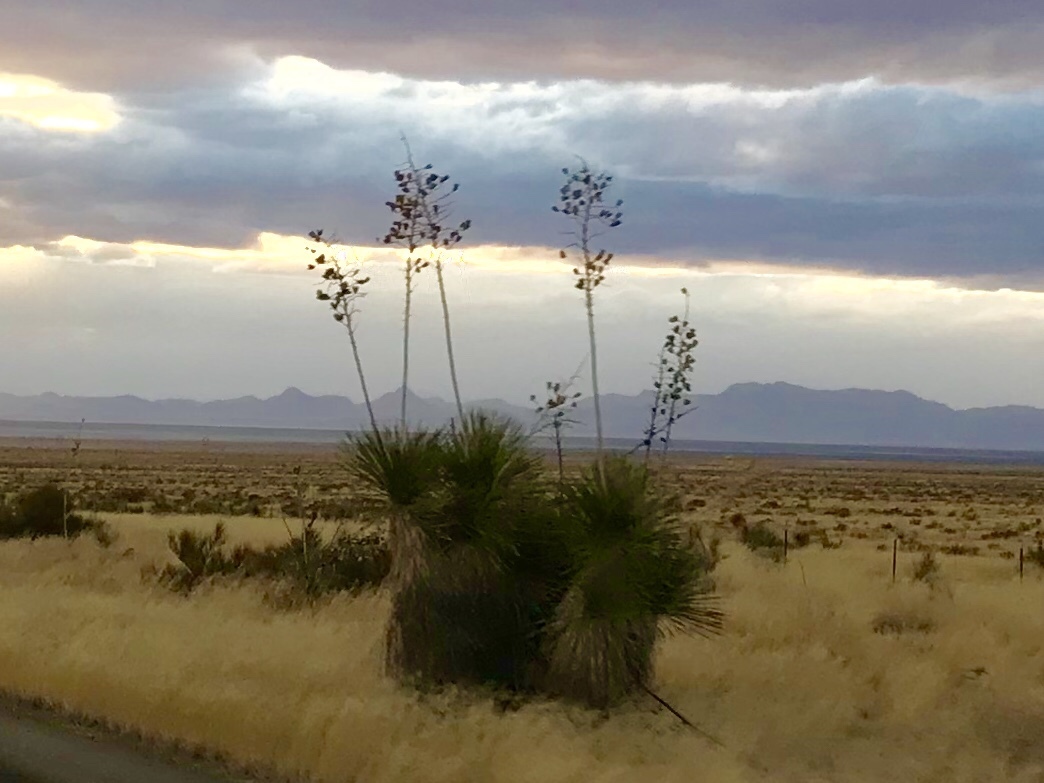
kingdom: Plantae
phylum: Tracheophyta
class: Liliopsida
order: Asparagales
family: Asparagaceae
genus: Yucca
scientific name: Yucca elata
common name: Palmella
